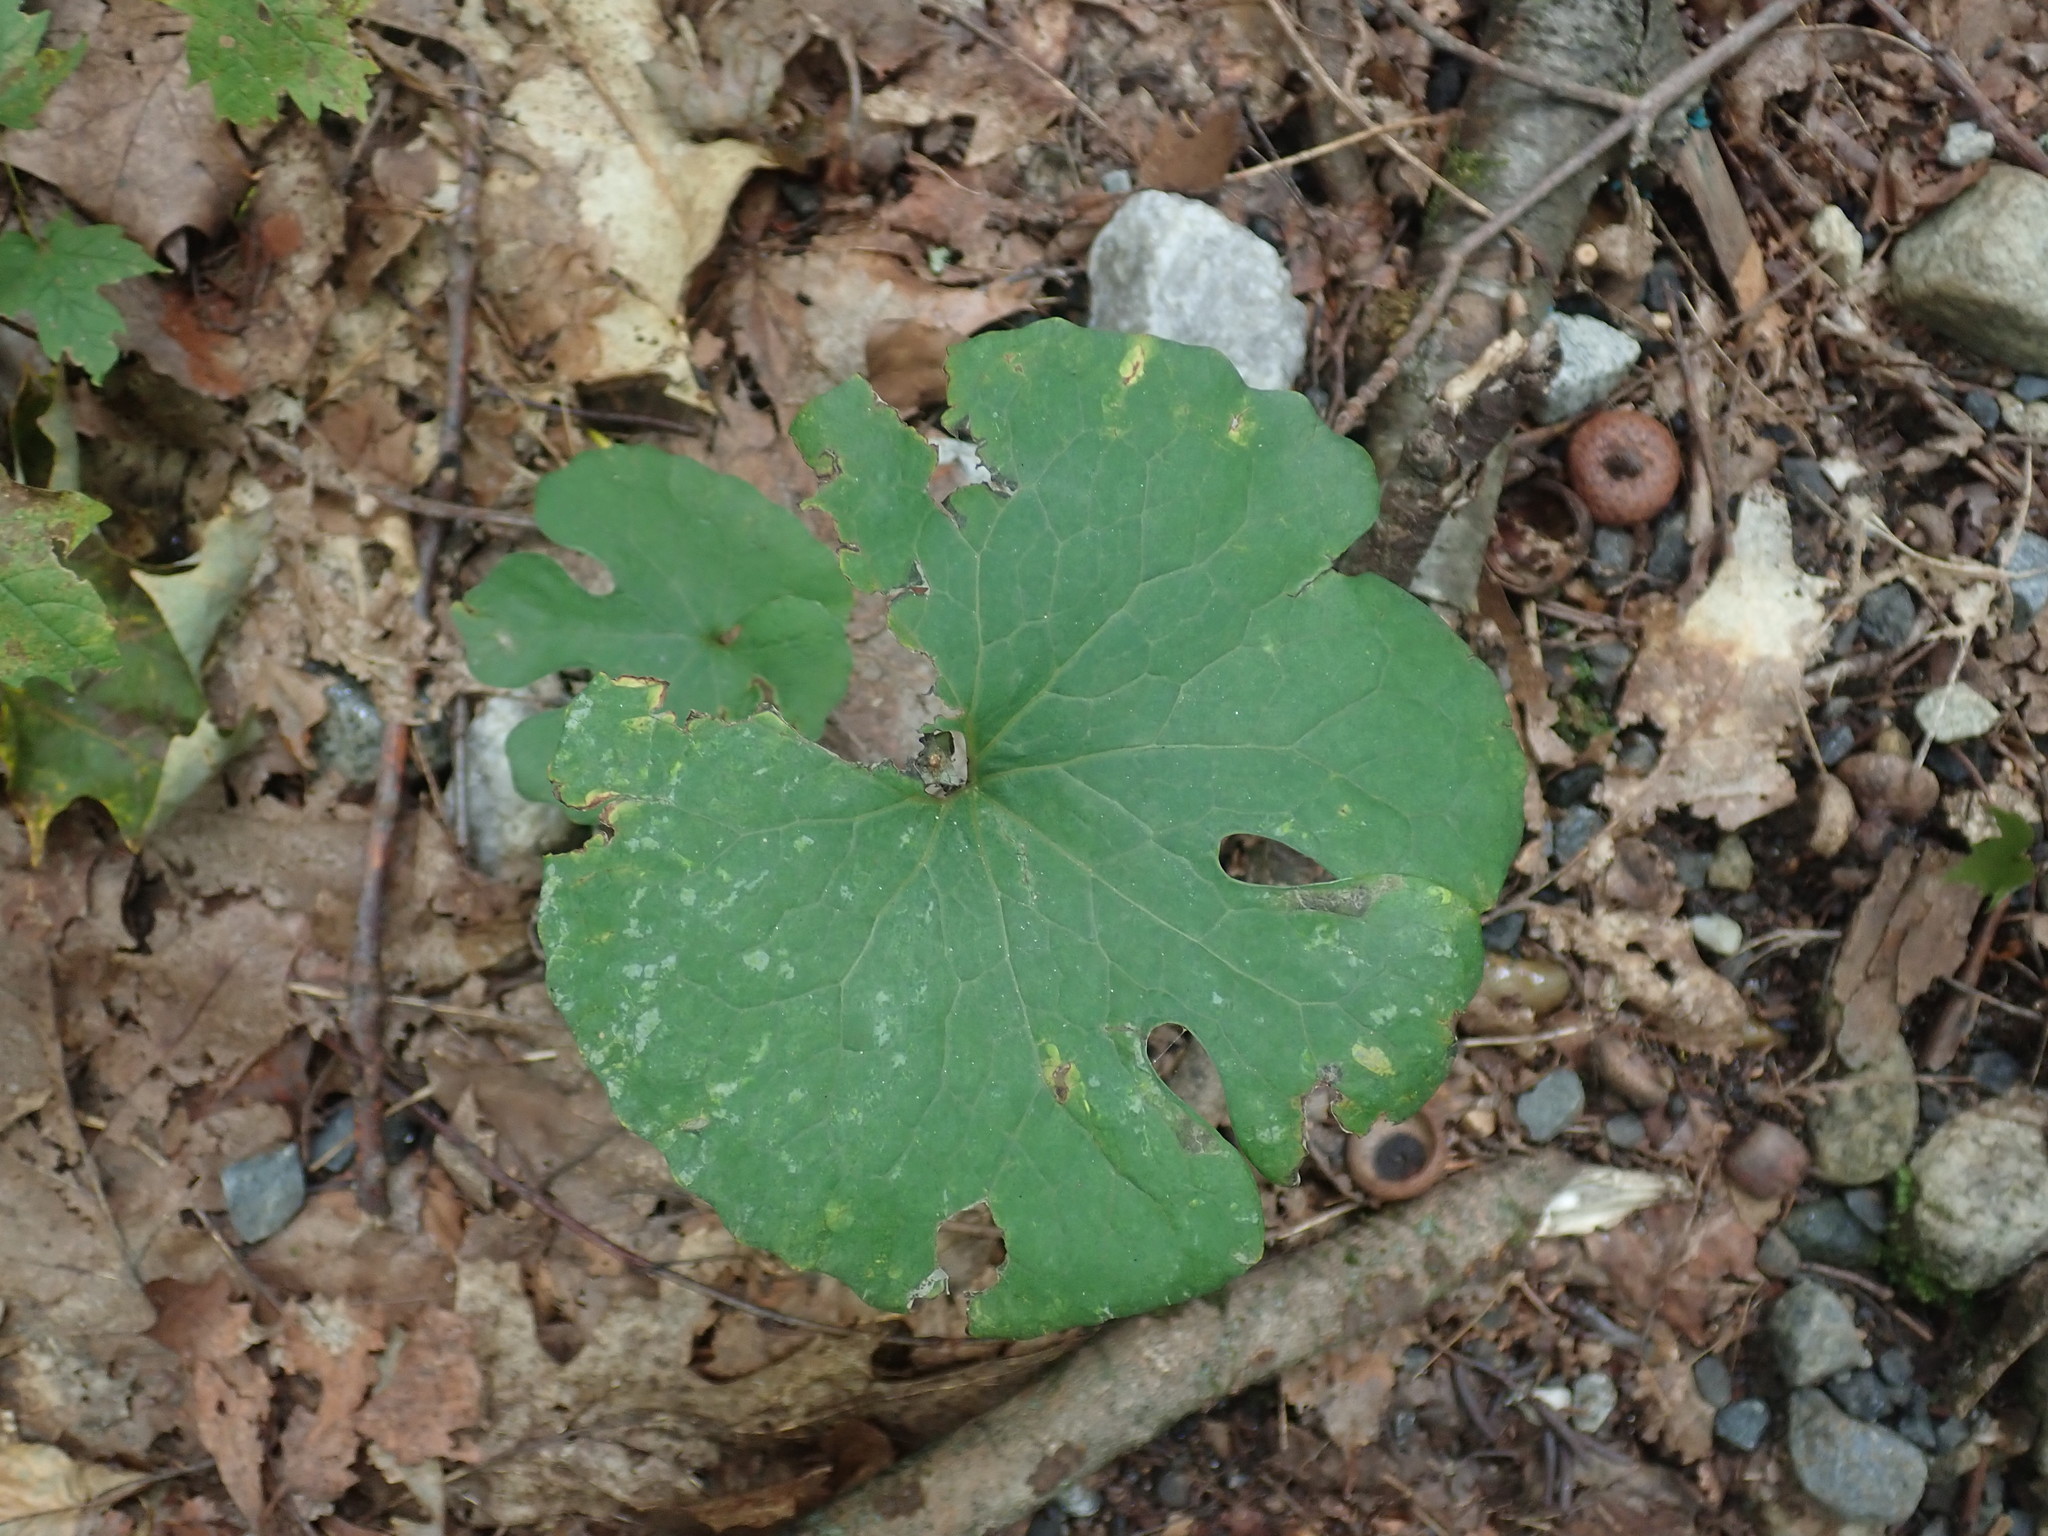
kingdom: Plantae
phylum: Tracheophyta
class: Magnoliopsida
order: Ranunculales
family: Papaveraceae
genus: Sanguinaria
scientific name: Sanguinaria canadensis
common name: Bloodroot
